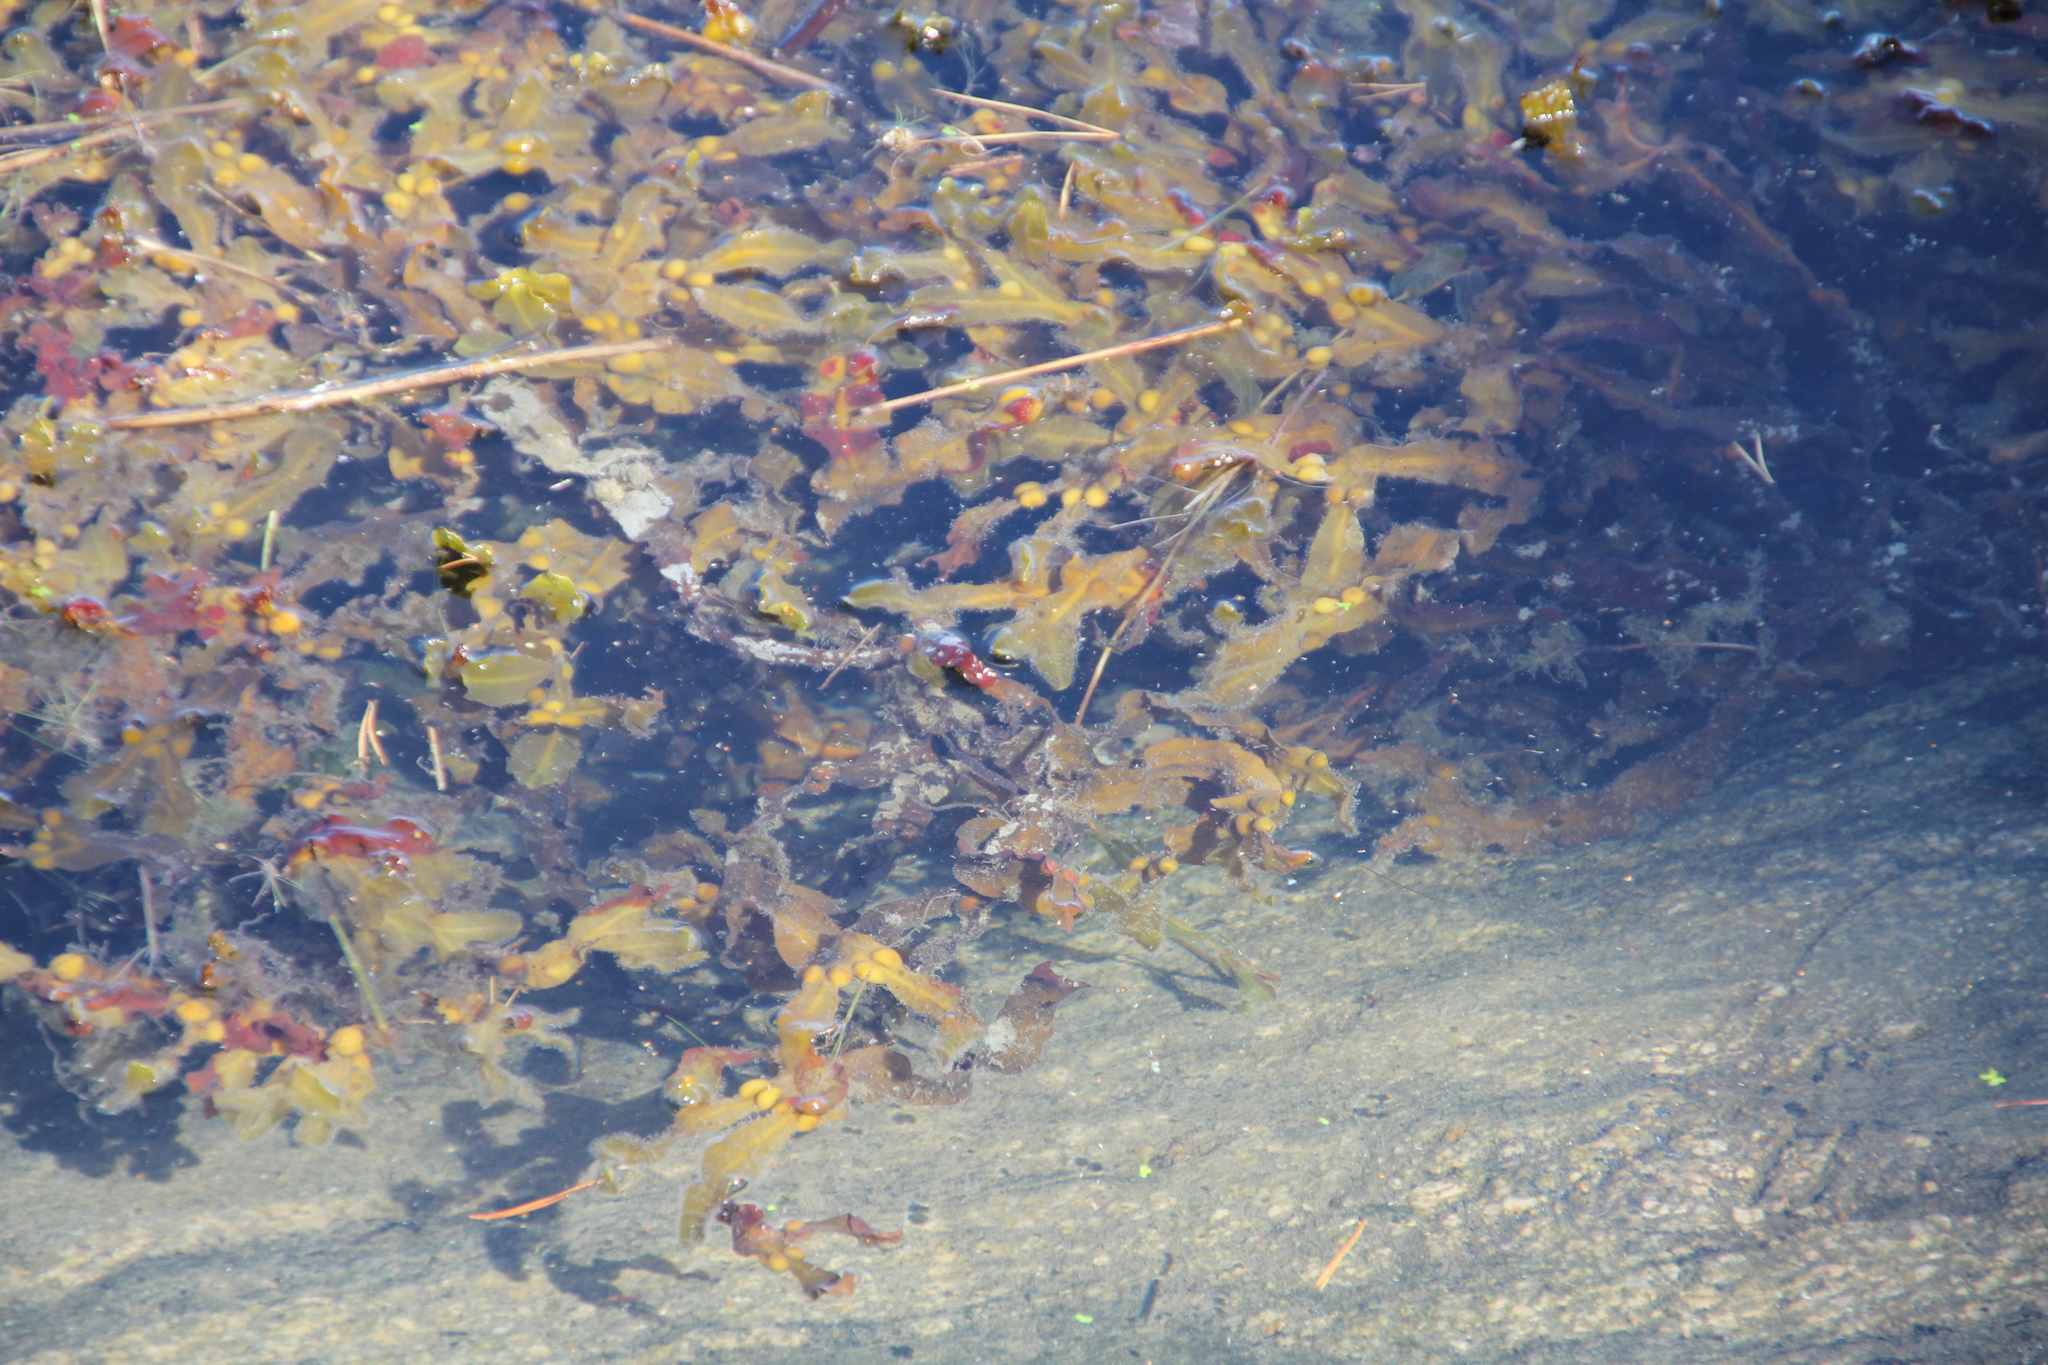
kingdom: Chromista
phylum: Ochrophyta
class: Phaeophyceae
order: Fucales
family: Fucaceae
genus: Fucus
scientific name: Fucus vesiculosus
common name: Bladder wrack
